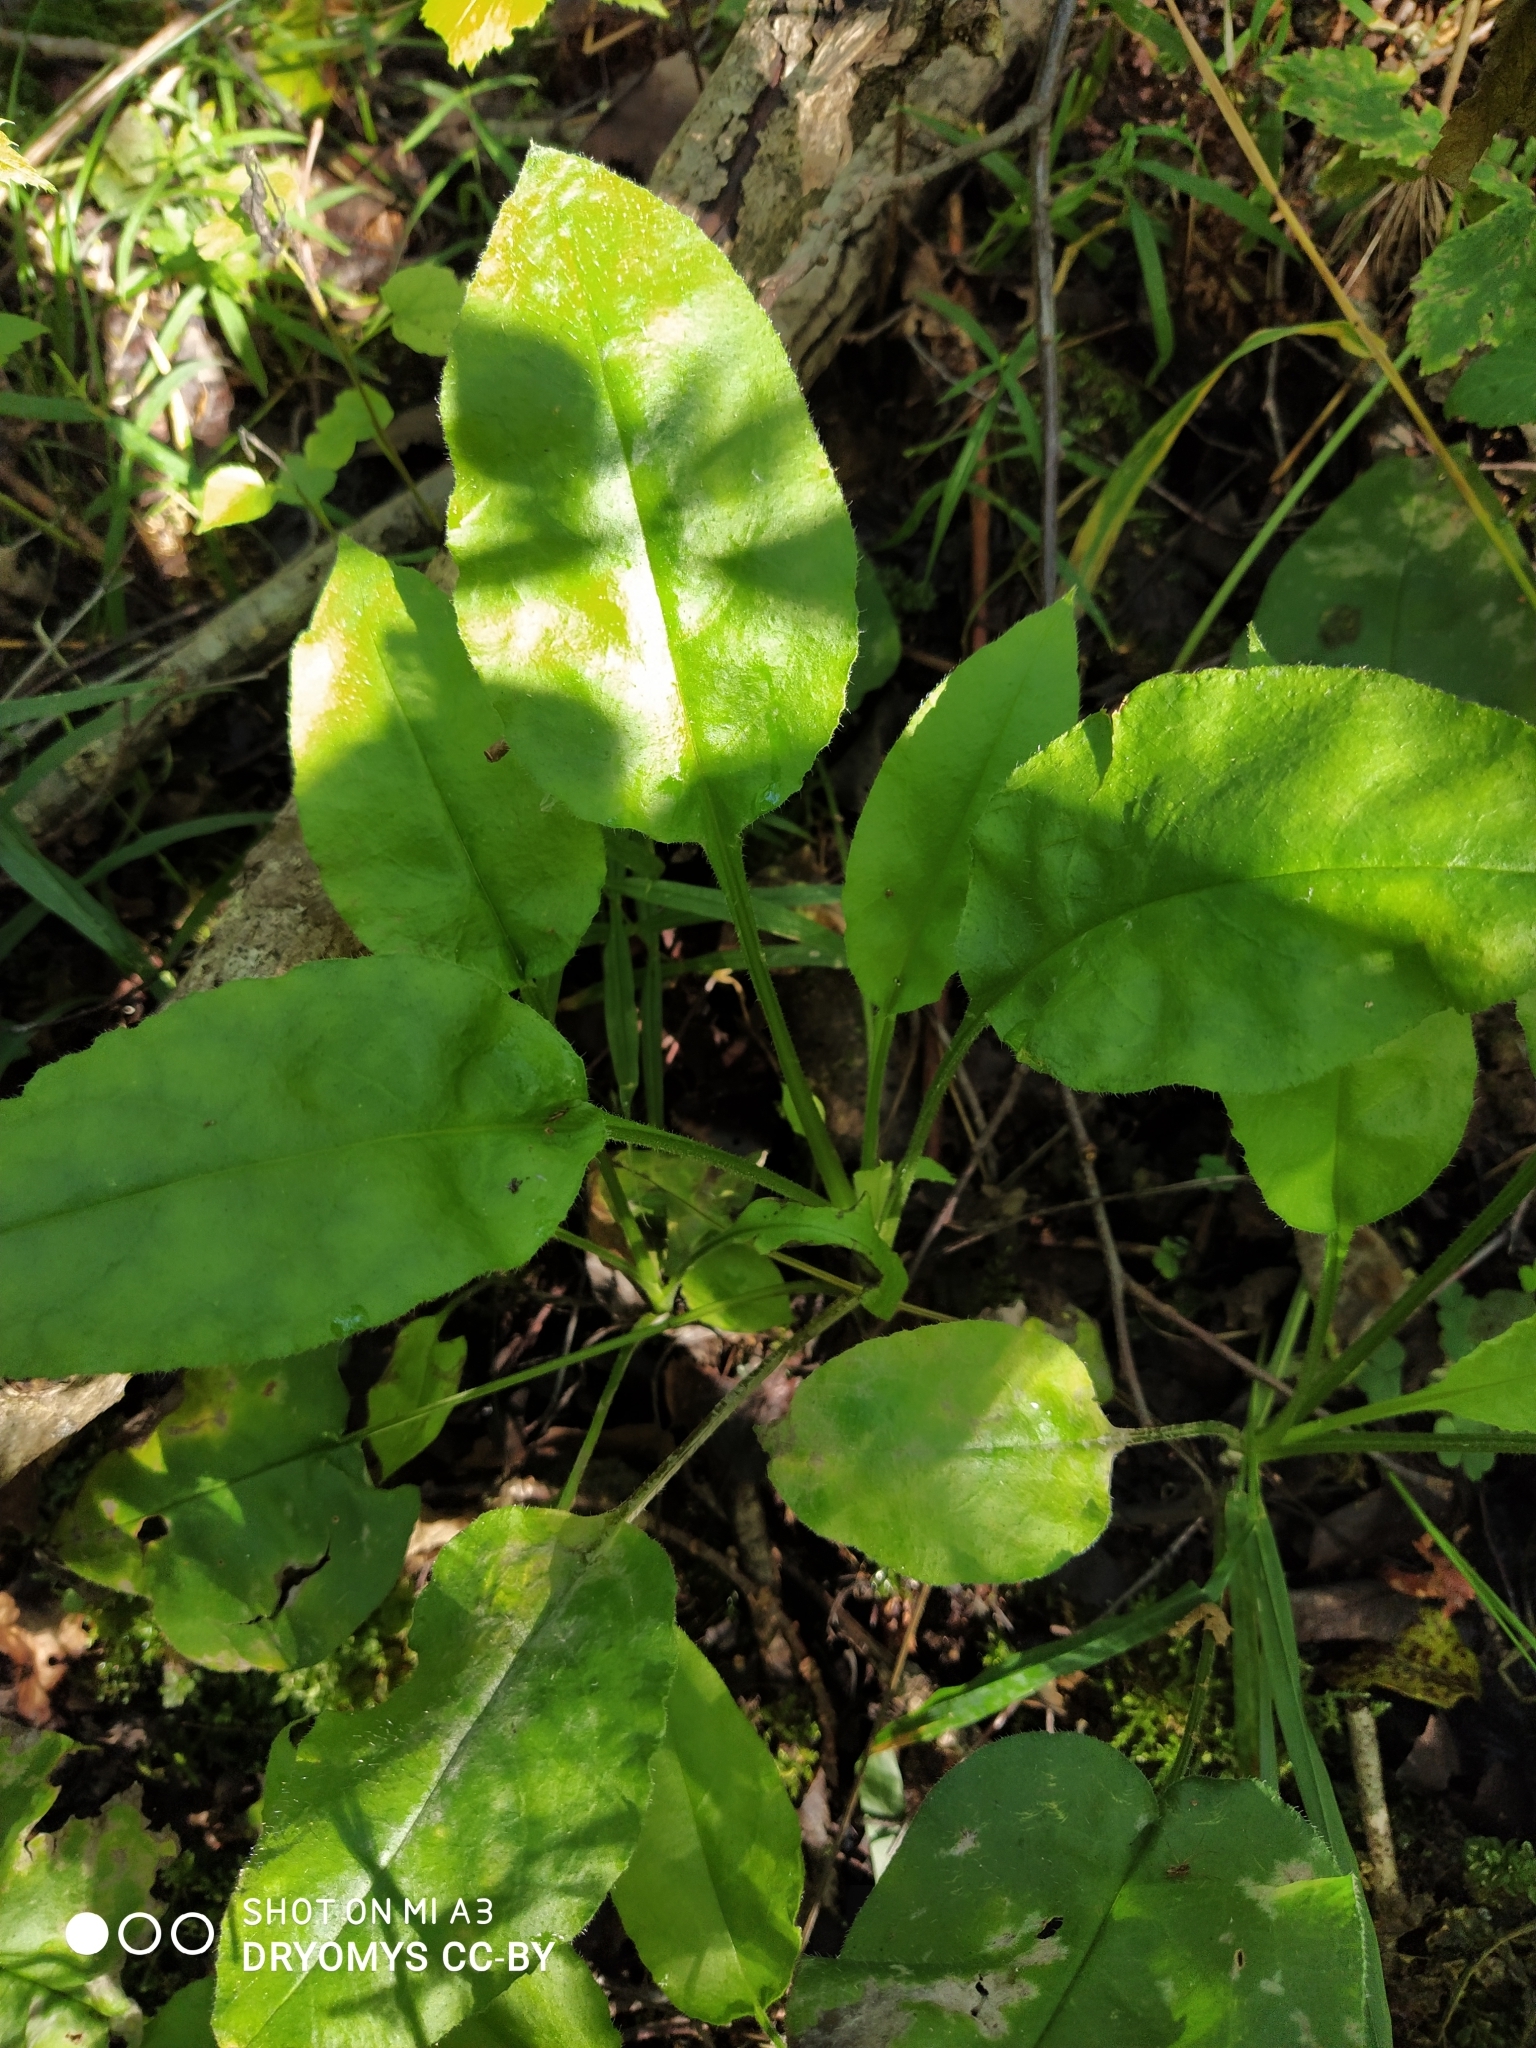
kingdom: Plantae
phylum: Tracheophyta
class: Magnoliopsida
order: Boraginales
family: Boraginaceae
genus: Pulmonaria
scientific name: Pulmonaria obscura
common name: Suffolk lungwort
